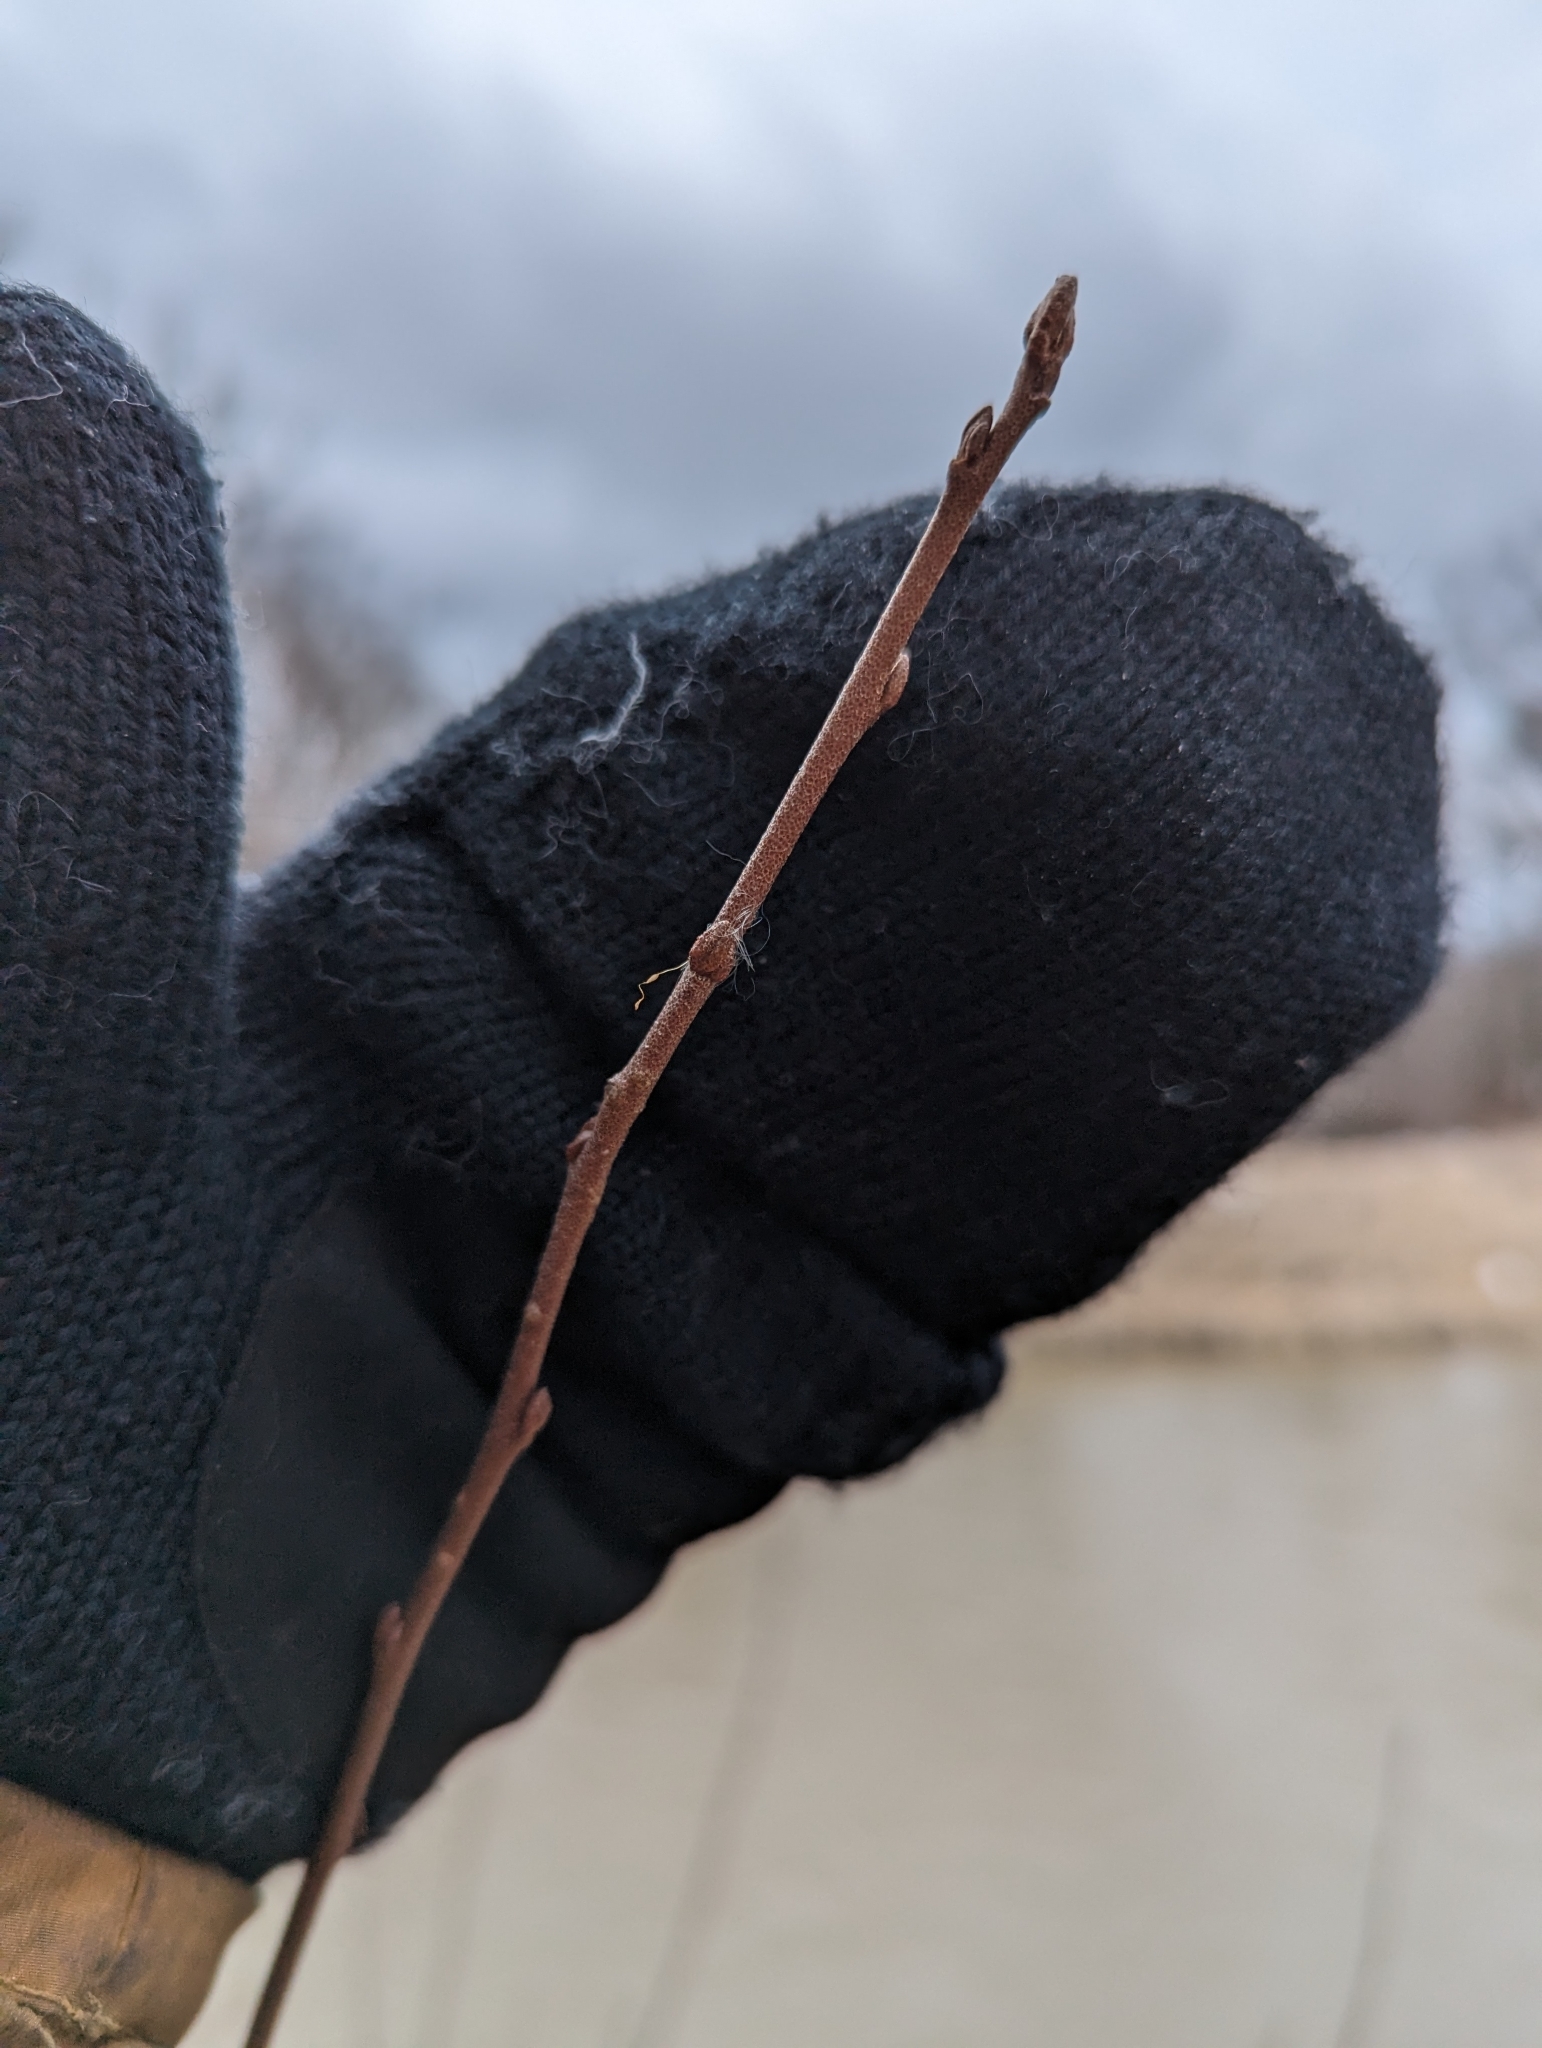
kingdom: Plantae
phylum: Tracheophyta
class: Magnoliopsida
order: Rosales
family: Elaeagnaceae
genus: Elaeagnus
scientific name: Elaeagnus umbellata
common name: Autumn olive
